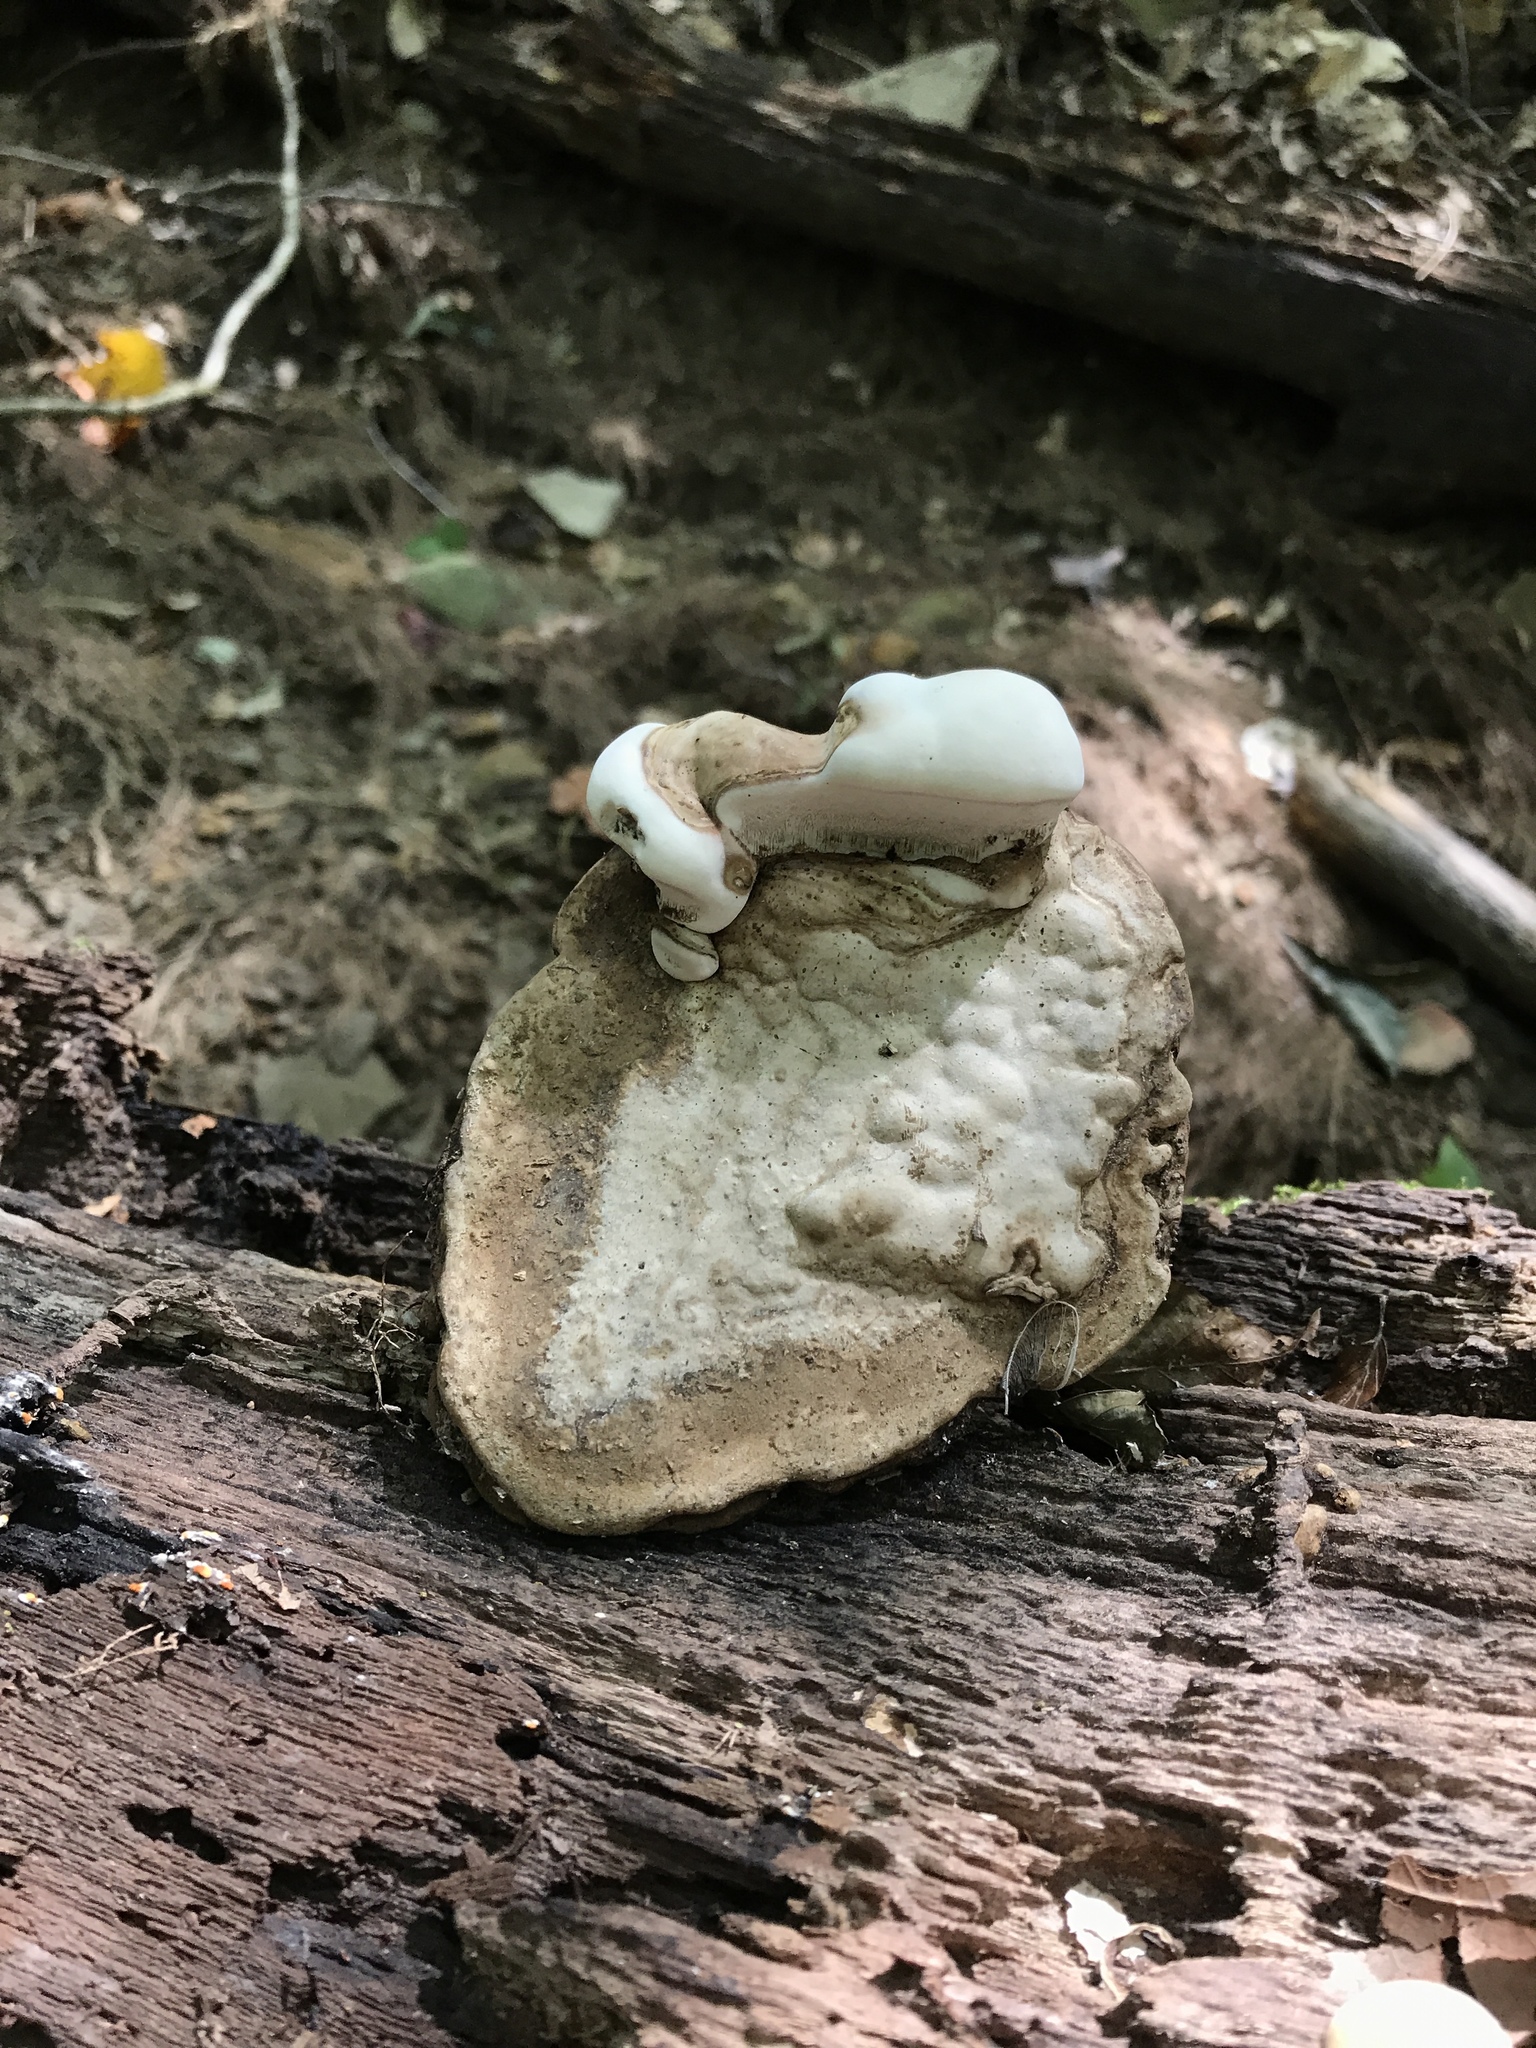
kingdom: Fungi
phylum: Basidiomycota
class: Agaricomycetes
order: Polyporales
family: Polyporaceae
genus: Ganoderma
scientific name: Ganoderma applanatum
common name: Artist's bracket
